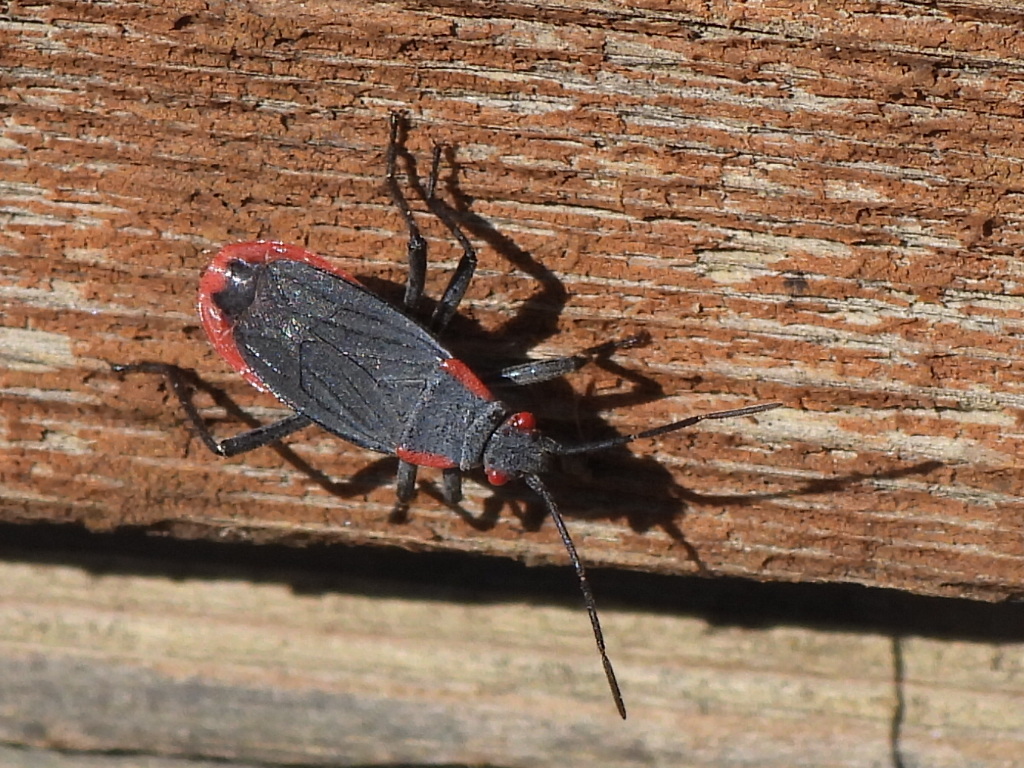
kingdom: Animalia
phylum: Arthropoda
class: Insecta
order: Hemiptera
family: Rhopalidae
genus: Jadera
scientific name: Jadera haematoloma
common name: Red-shouldered bug
